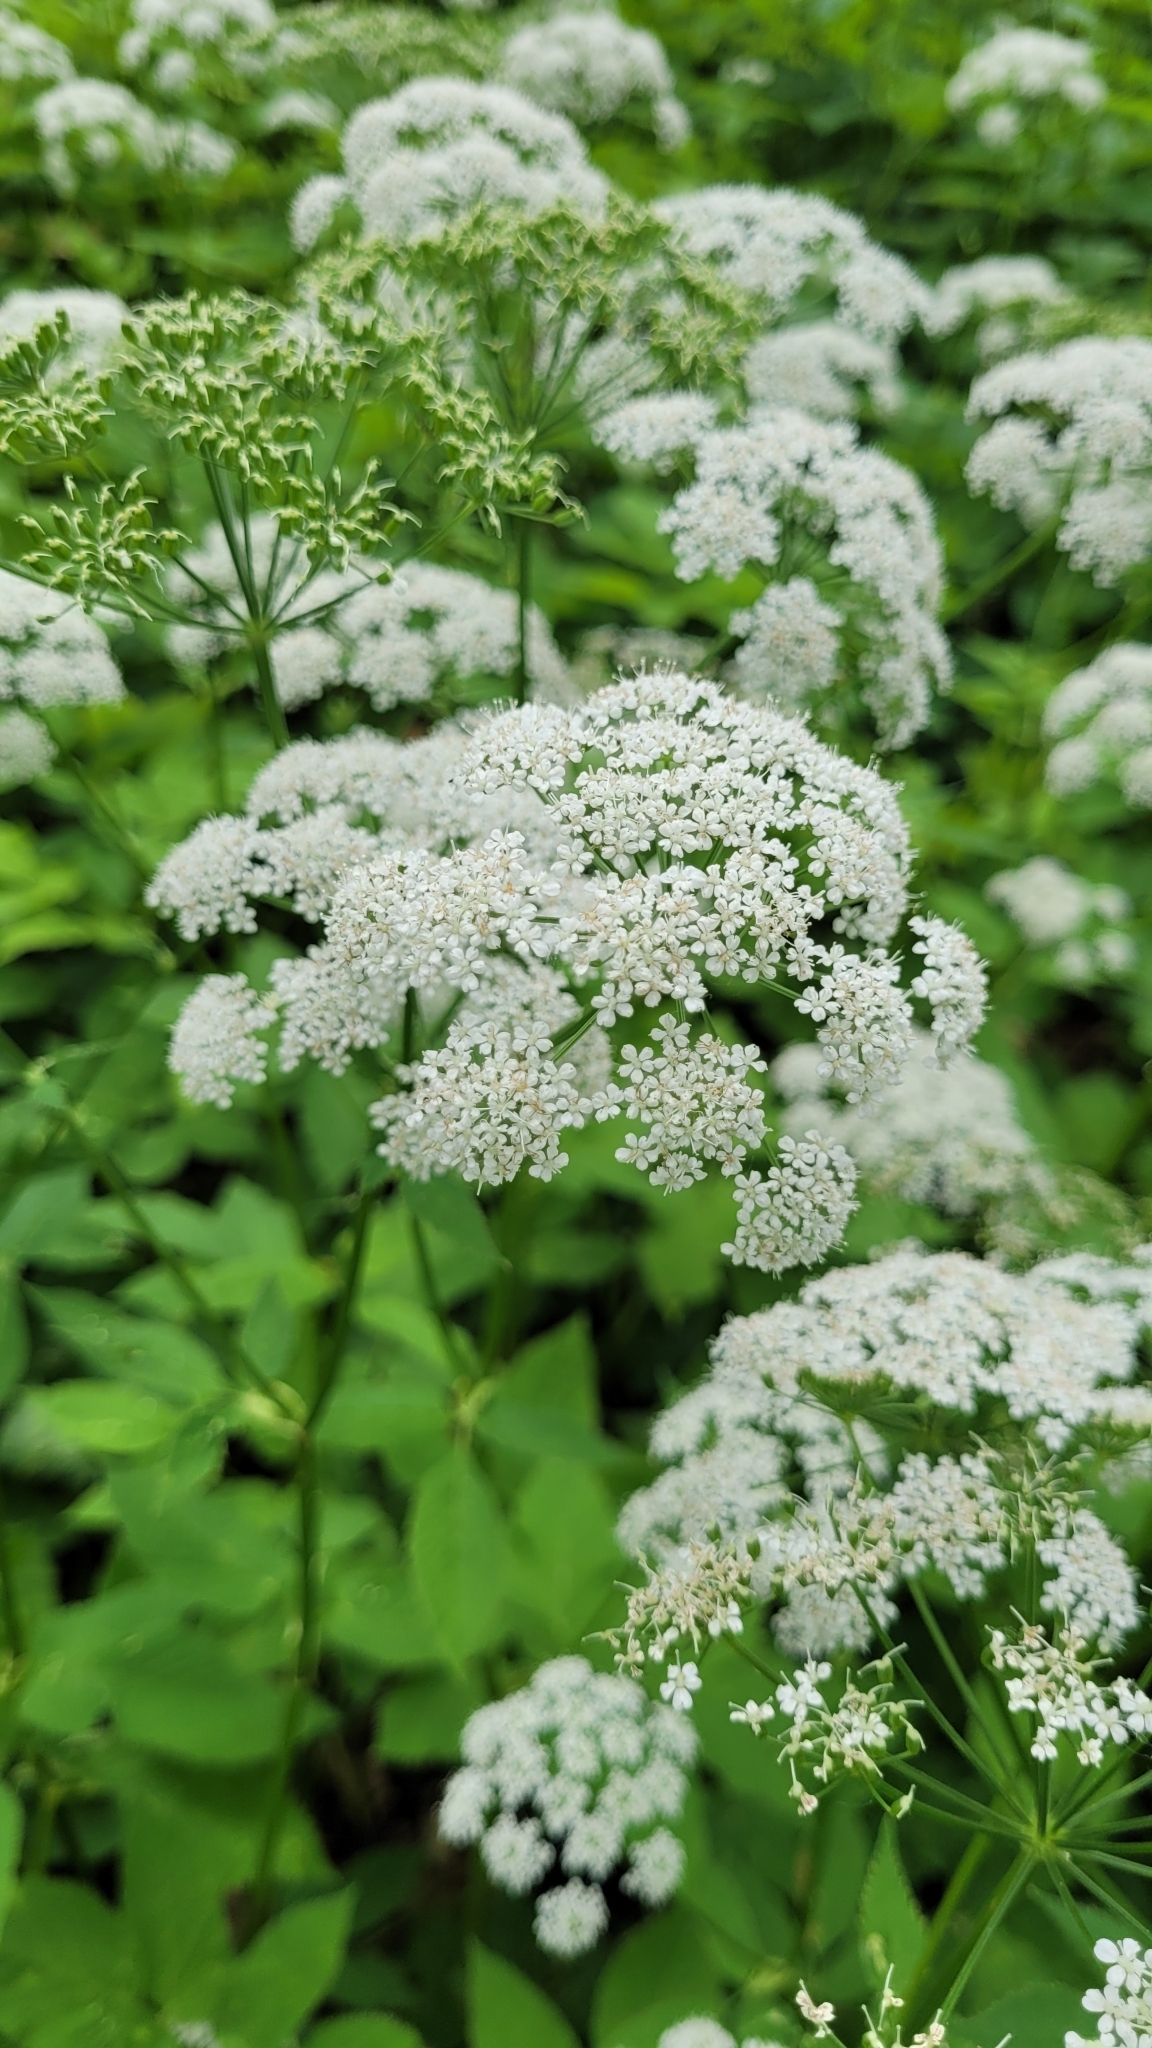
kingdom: Plantae
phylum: Tracheophyta
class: Magnoliopsida
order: Apiales
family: Apiaceae
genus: Aegopodium
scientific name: Aegopodium podagraria
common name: Ground-elder
